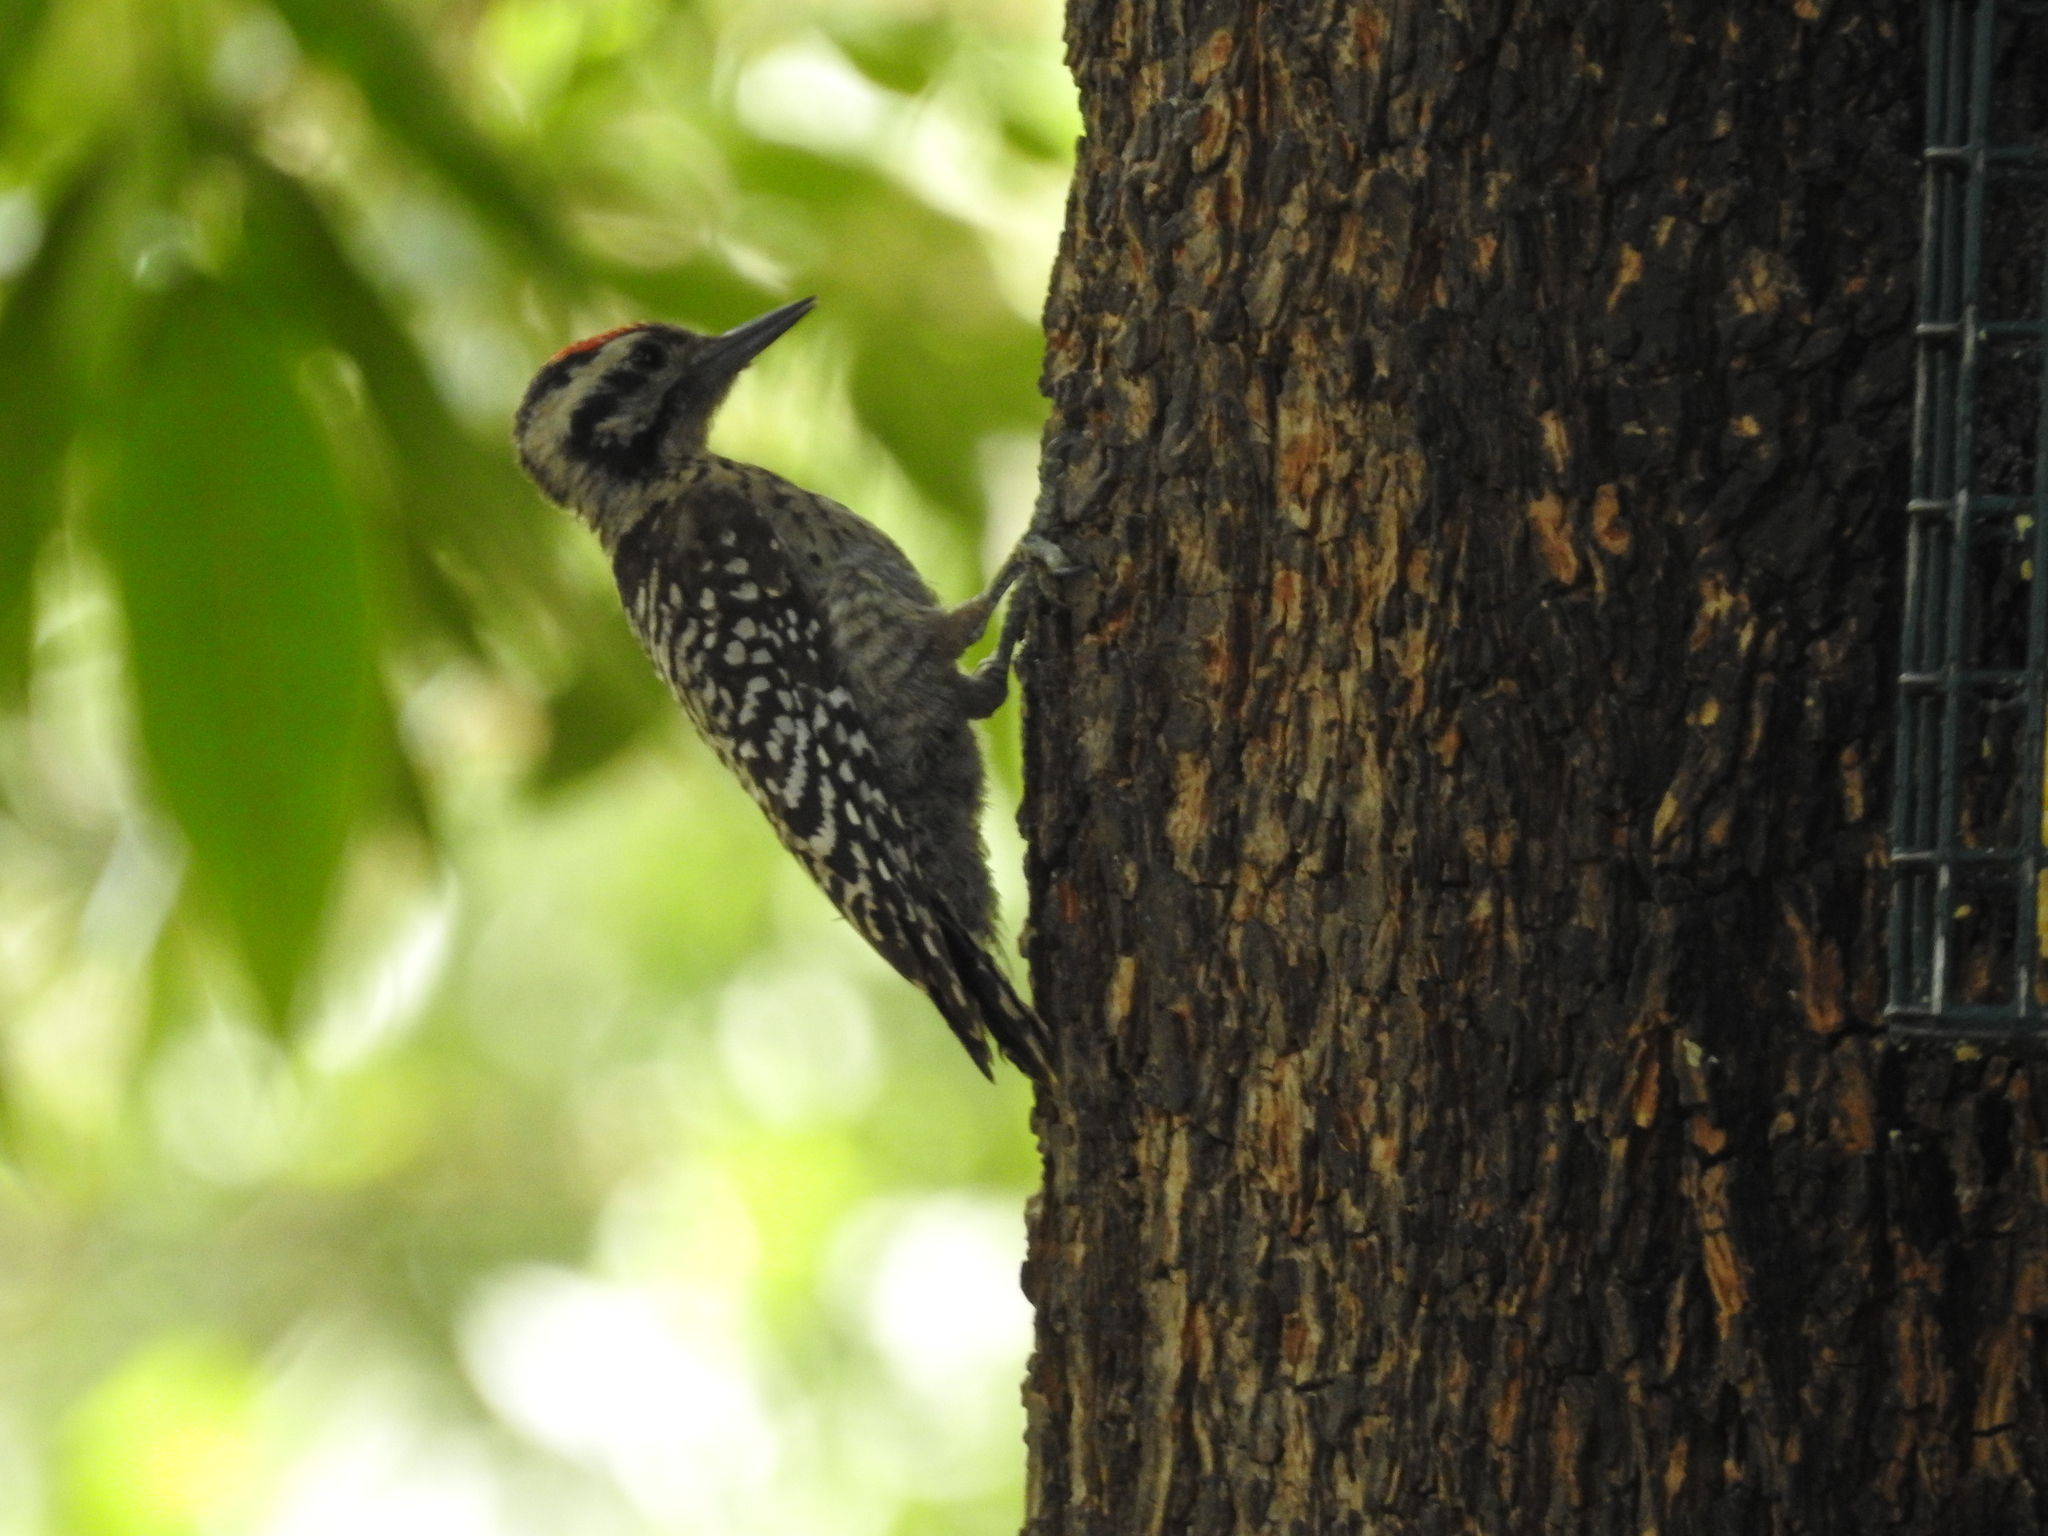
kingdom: Animalia
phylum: Chordata
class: Aves
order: Piciformes
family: Picidae
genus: Dryobates
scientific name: Dryobates scalaris
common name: Ladder-backed woodpecker
